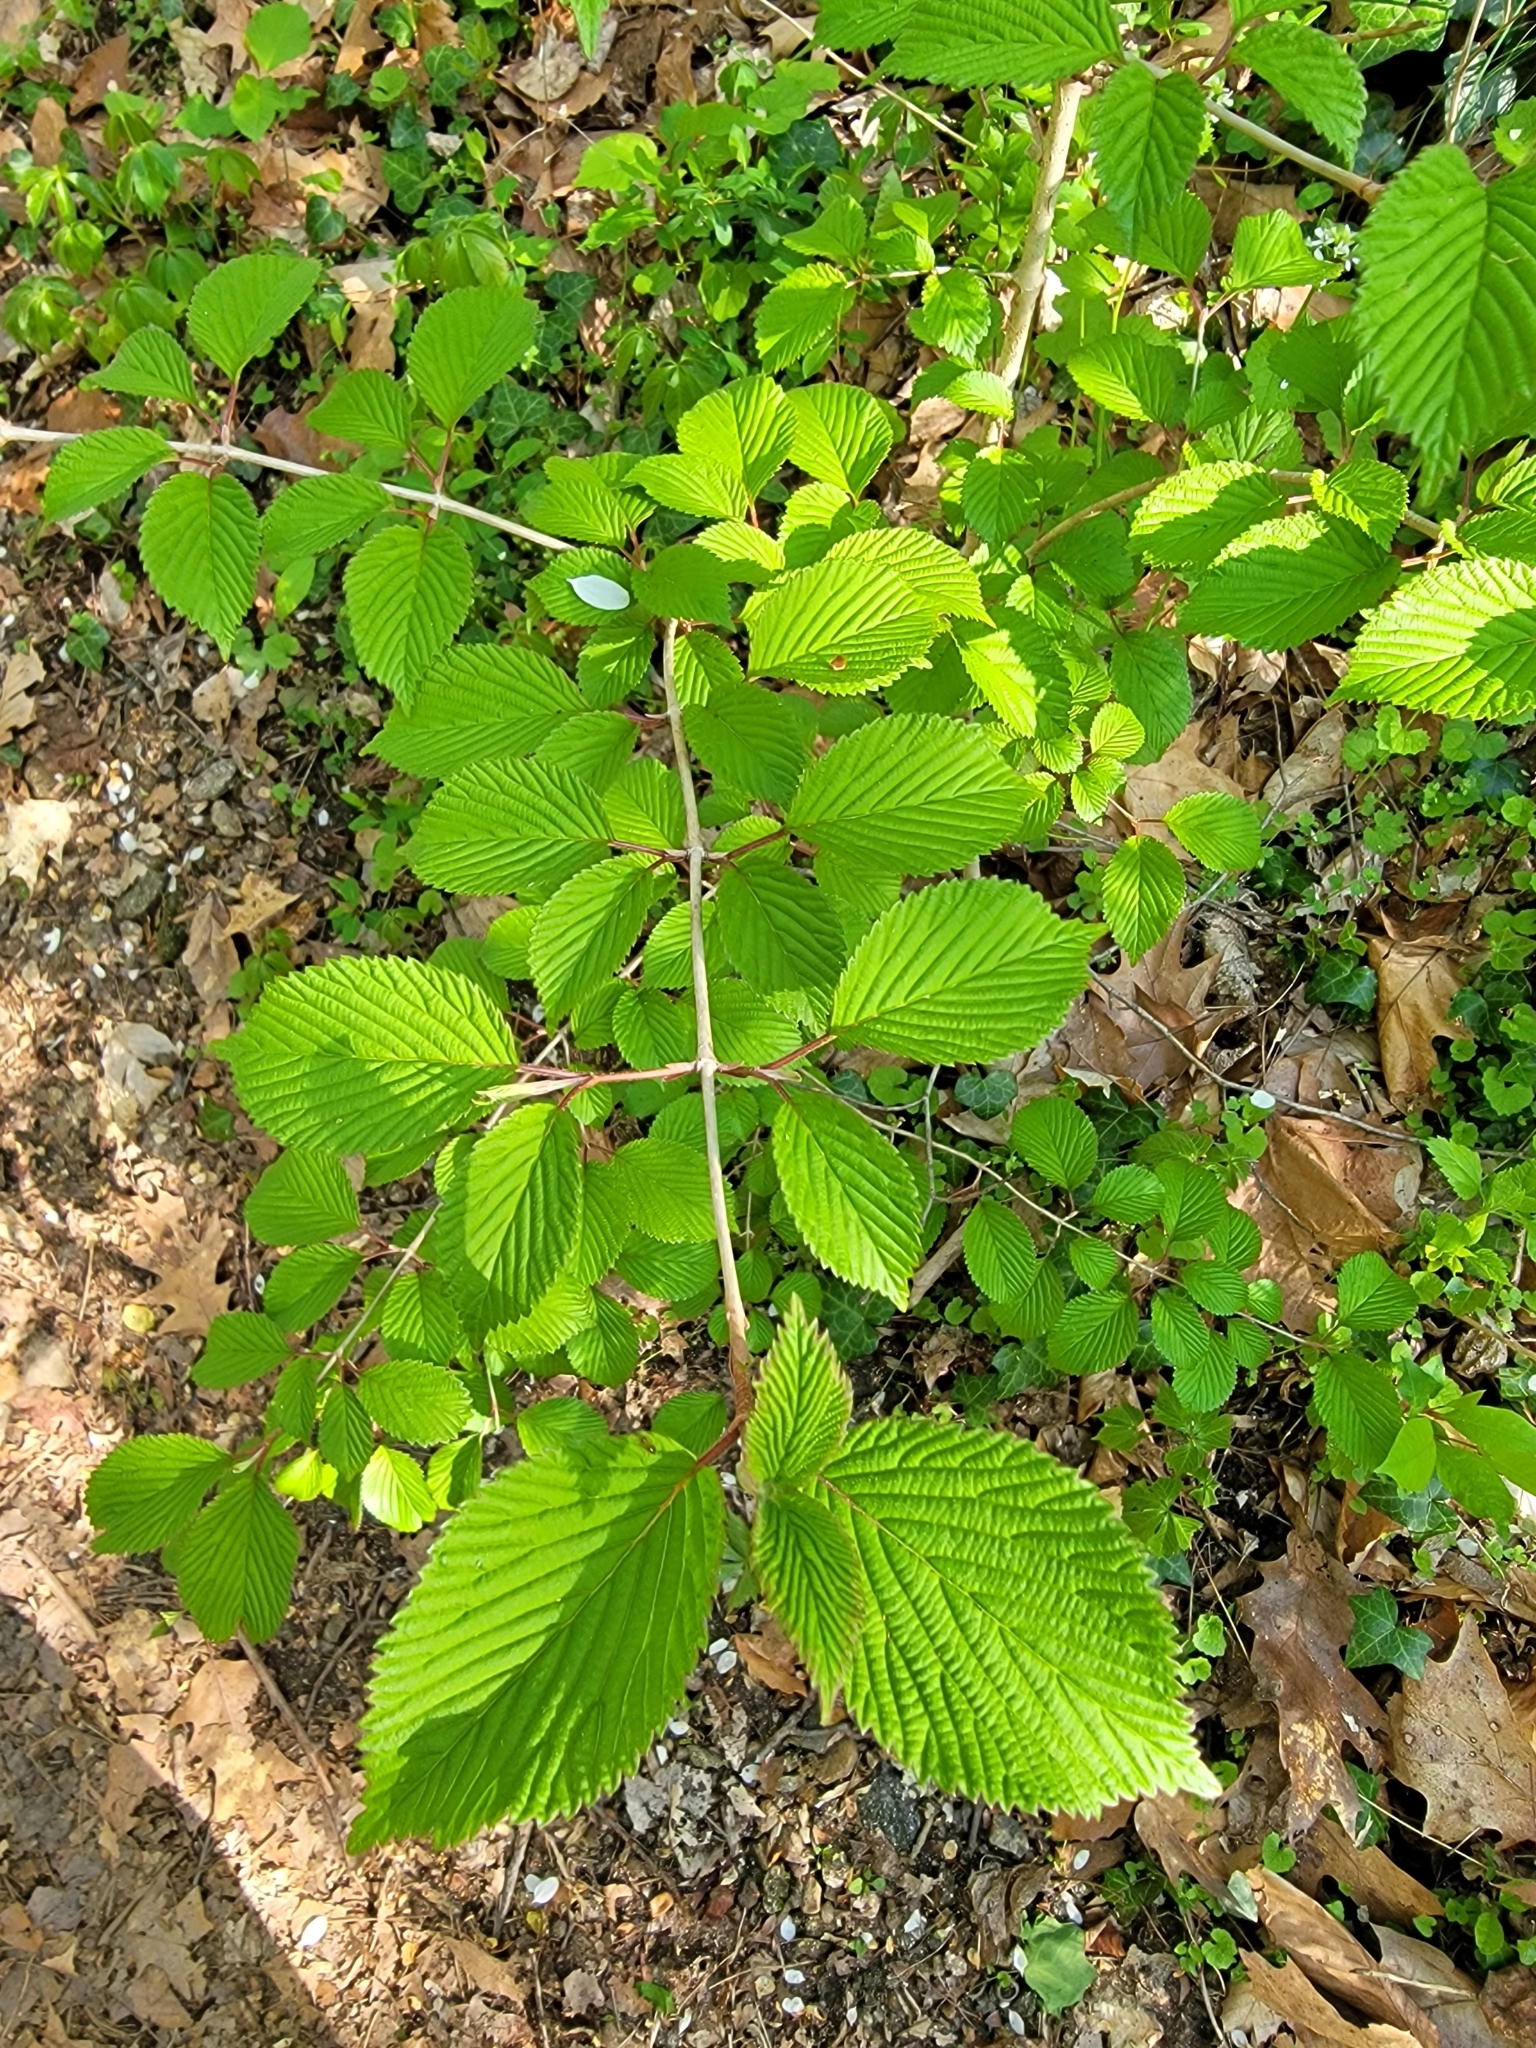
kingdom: Plantae
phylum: Tracheophyta
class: Magnoliopsida
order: Dipsacales
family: Viburnaceae
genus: Viburnum
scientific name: Viburnum plicatum
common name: Japanese snowball
